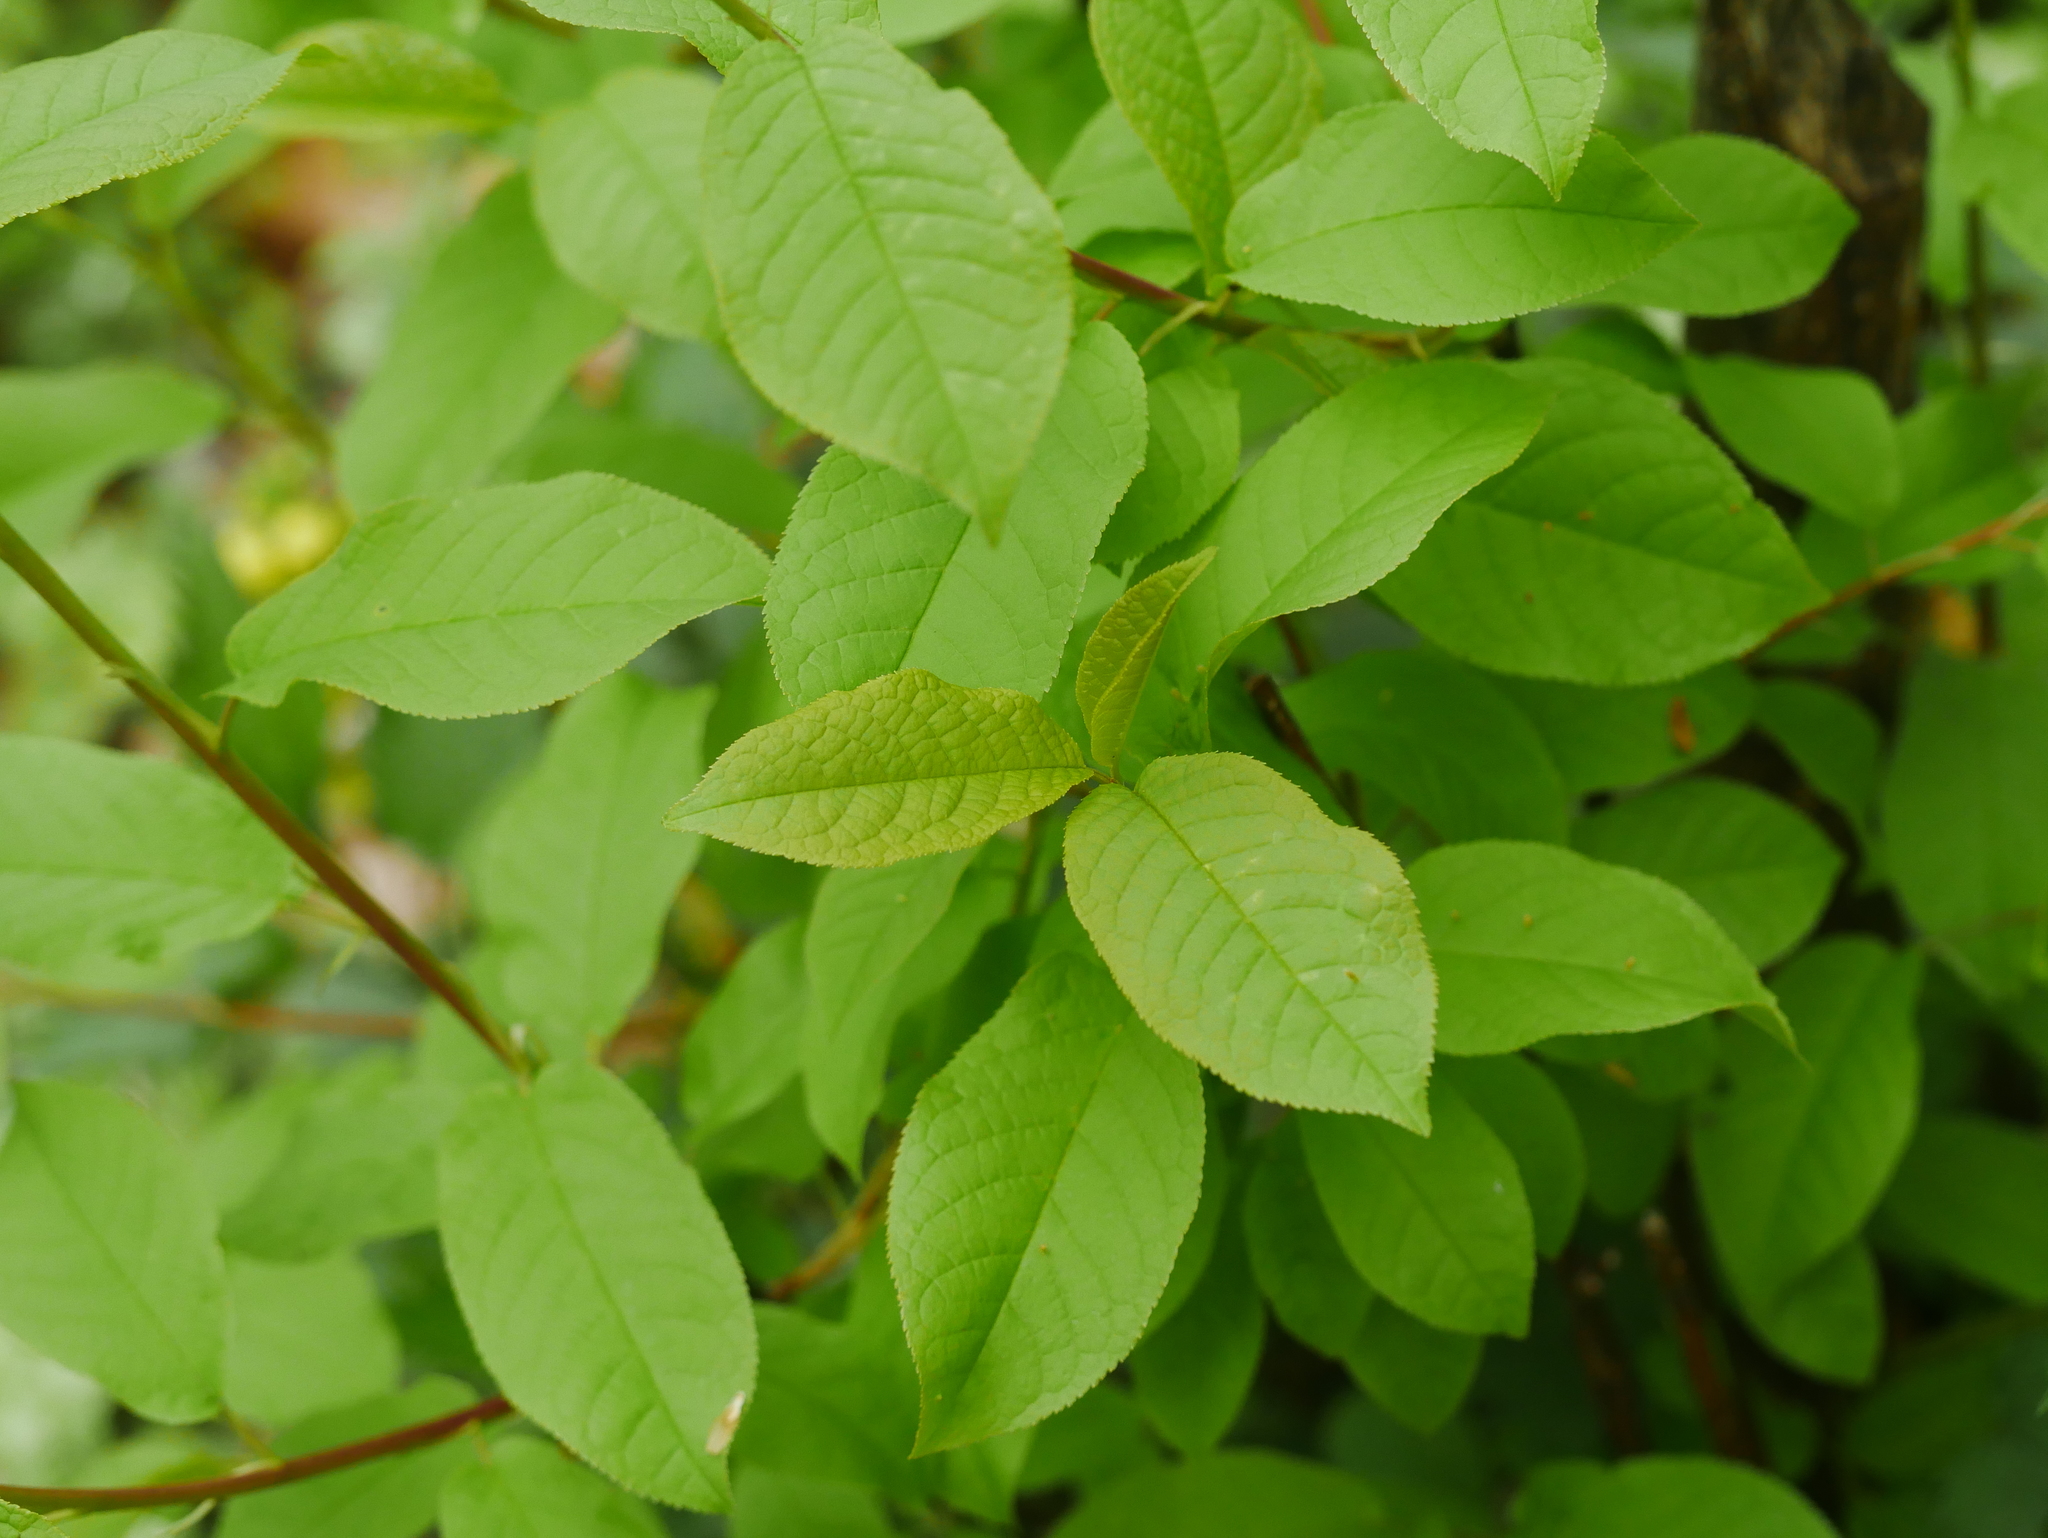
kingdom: Plantae
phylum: Tracheophyta
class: Magnoliopsida
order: Rosales
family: Rosaceae
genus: Prunus
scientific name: Prunus padus
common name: Bird cherry
